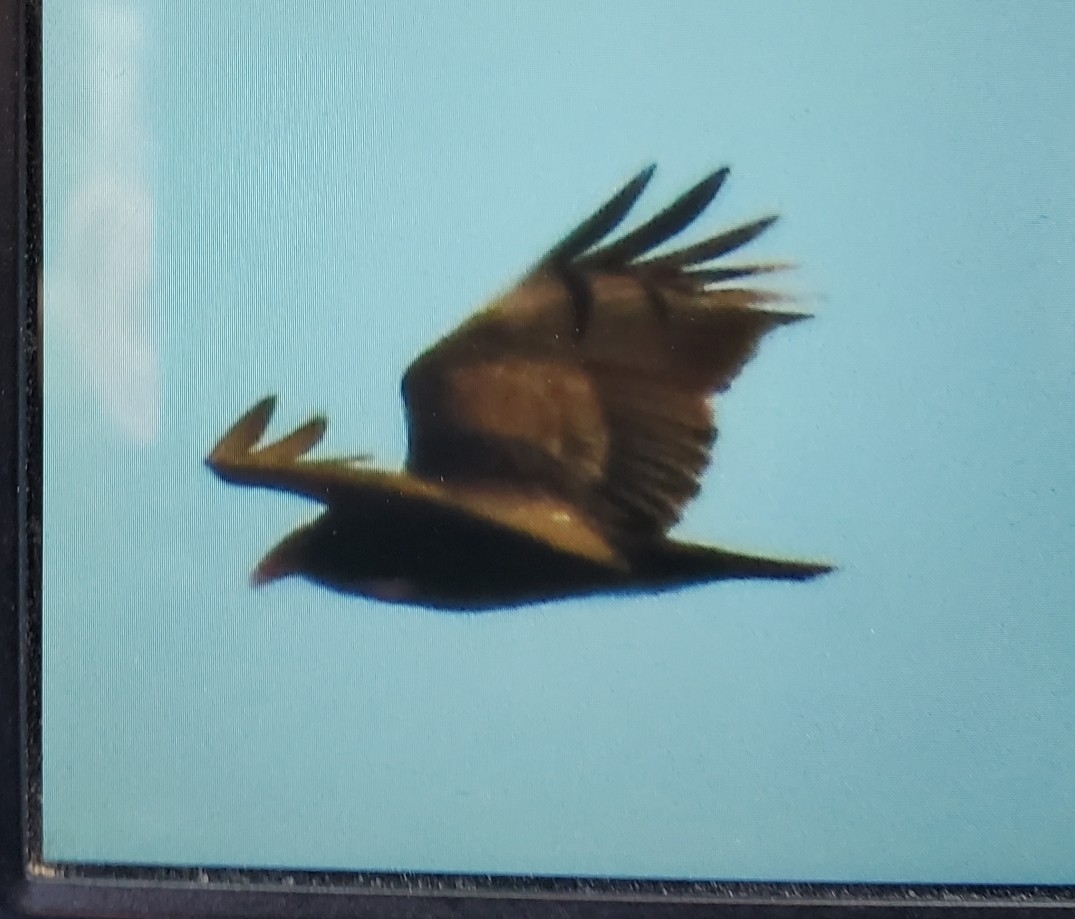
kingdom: Animalia
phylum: Chordata
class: Aves
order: Accipitriformes
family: Cathartidae
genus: Cathartes
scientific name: Cathartes aura
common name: Turkey vulture
